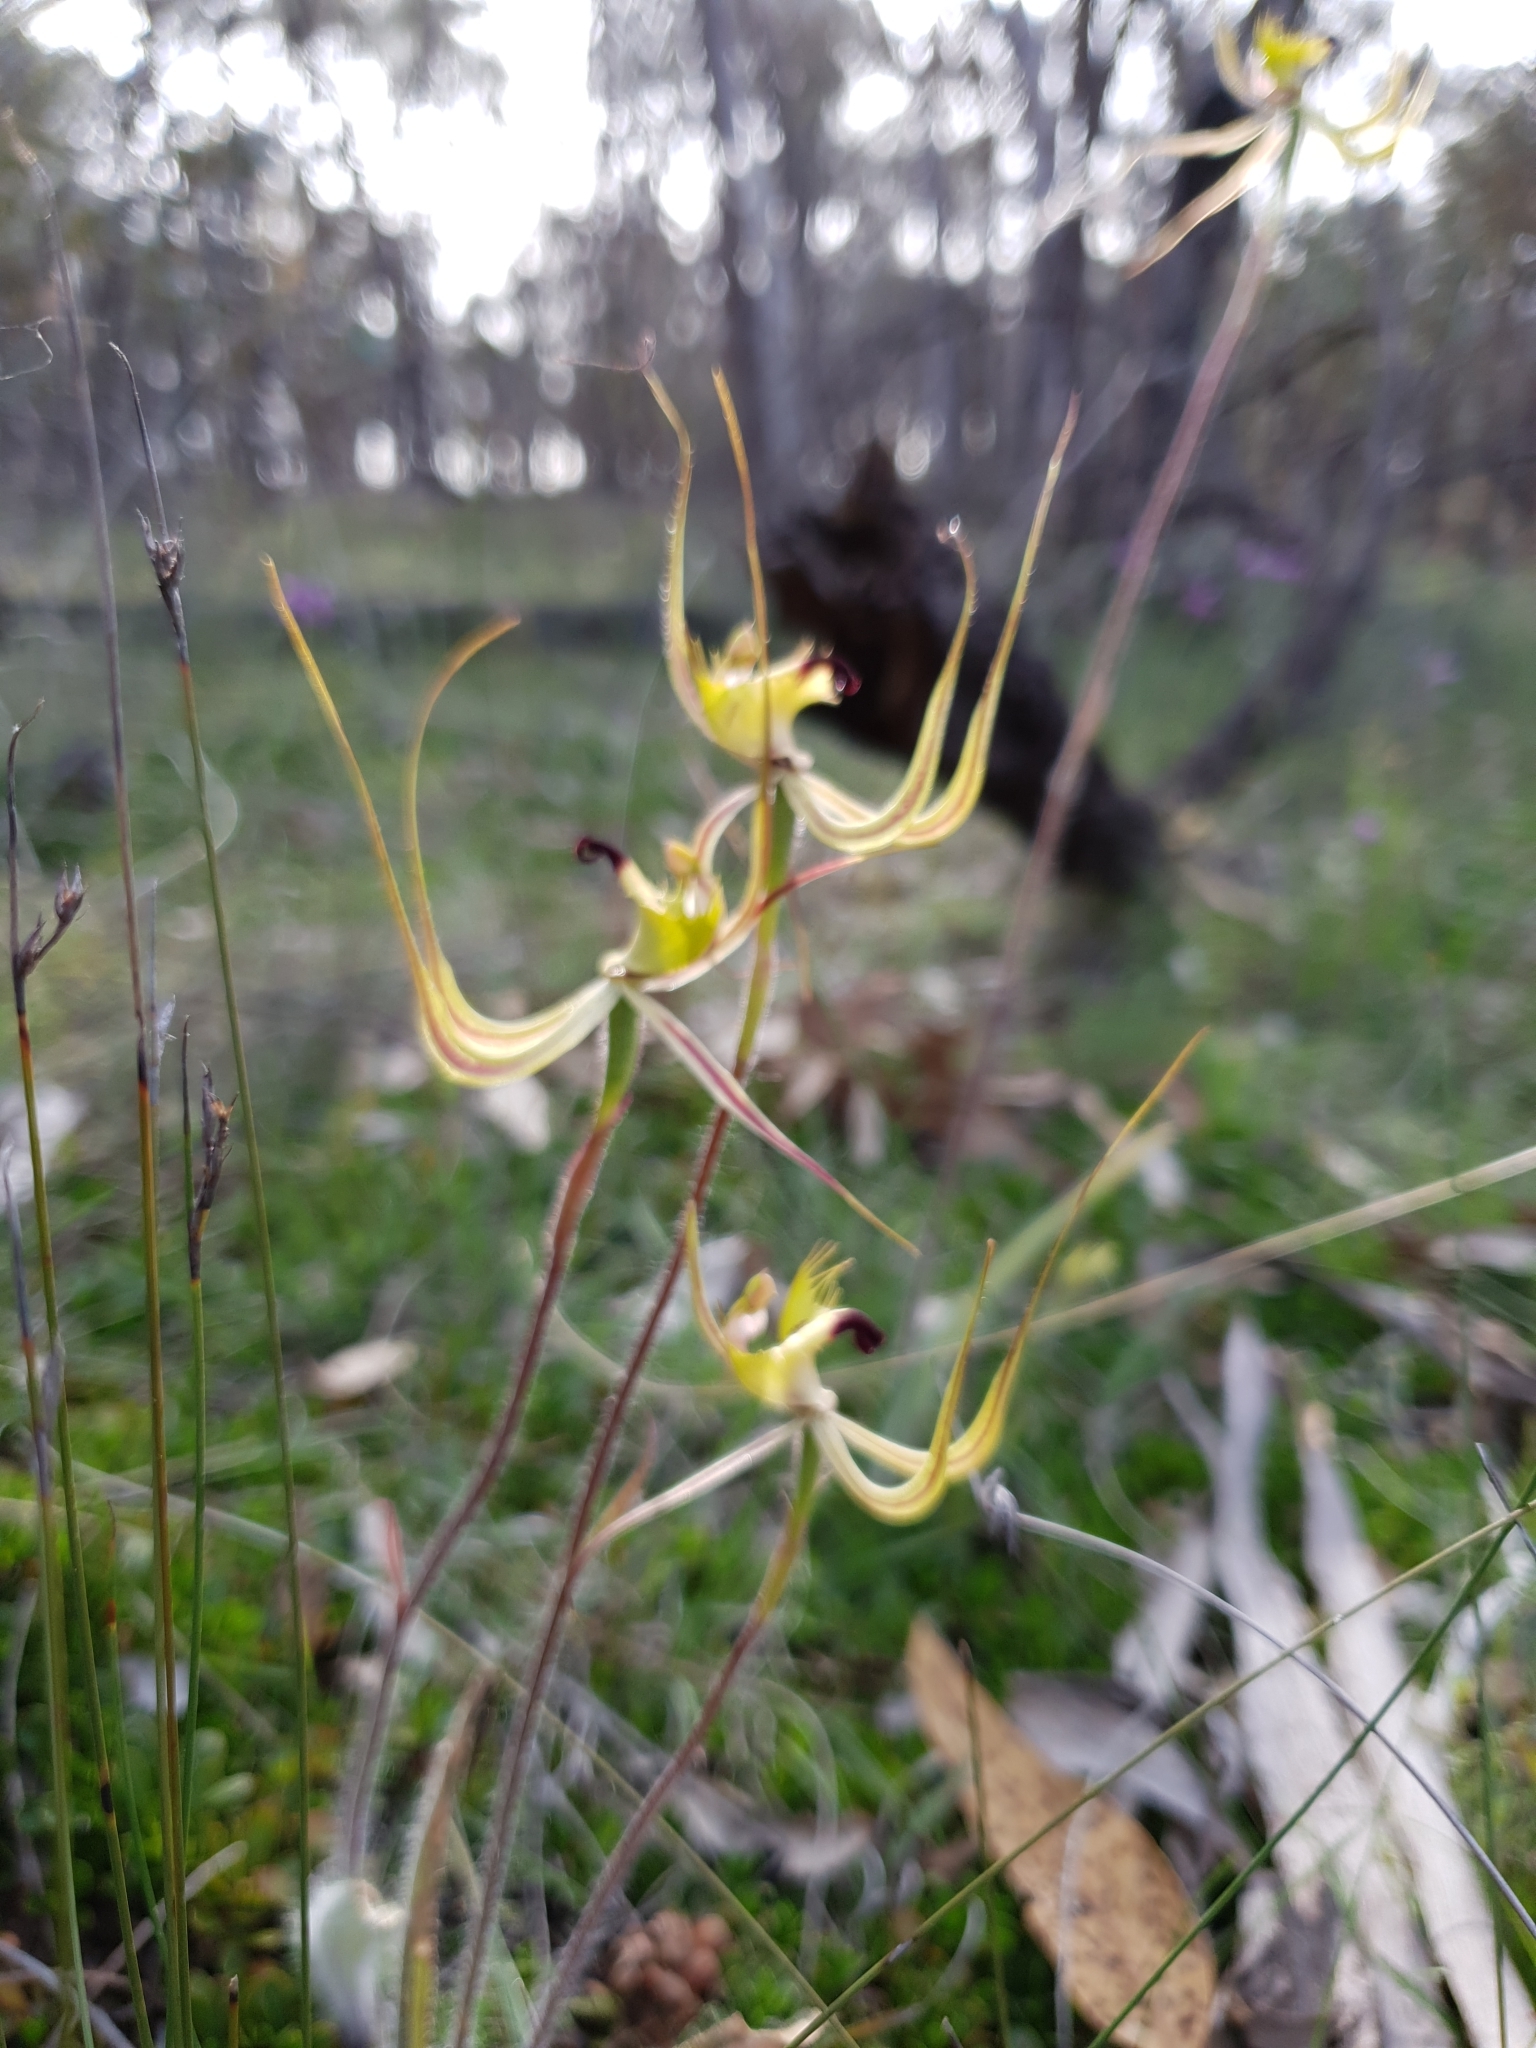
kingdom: Plantae
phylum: Tracheophyta
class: Liliopsida
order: Asparagales
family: Orchidaceae
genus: Caladenia
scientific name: Caladenia falcata
